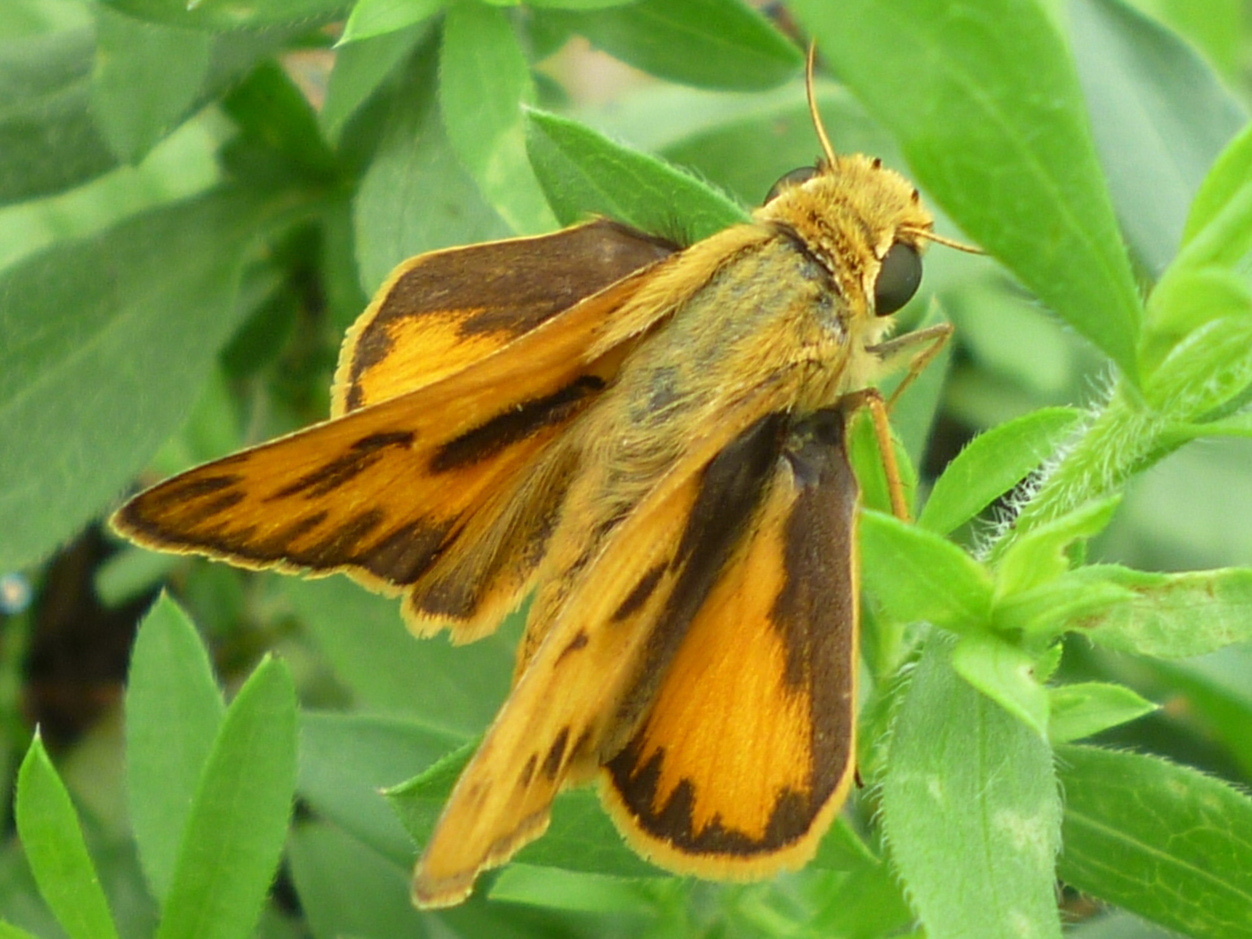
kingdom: Animalia
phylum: Arthropoda
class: Insecta
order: Lepidoptera
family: Hesperiidae
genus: Hylephila
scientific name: Hylephila phyleus
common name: Fiery skipper
